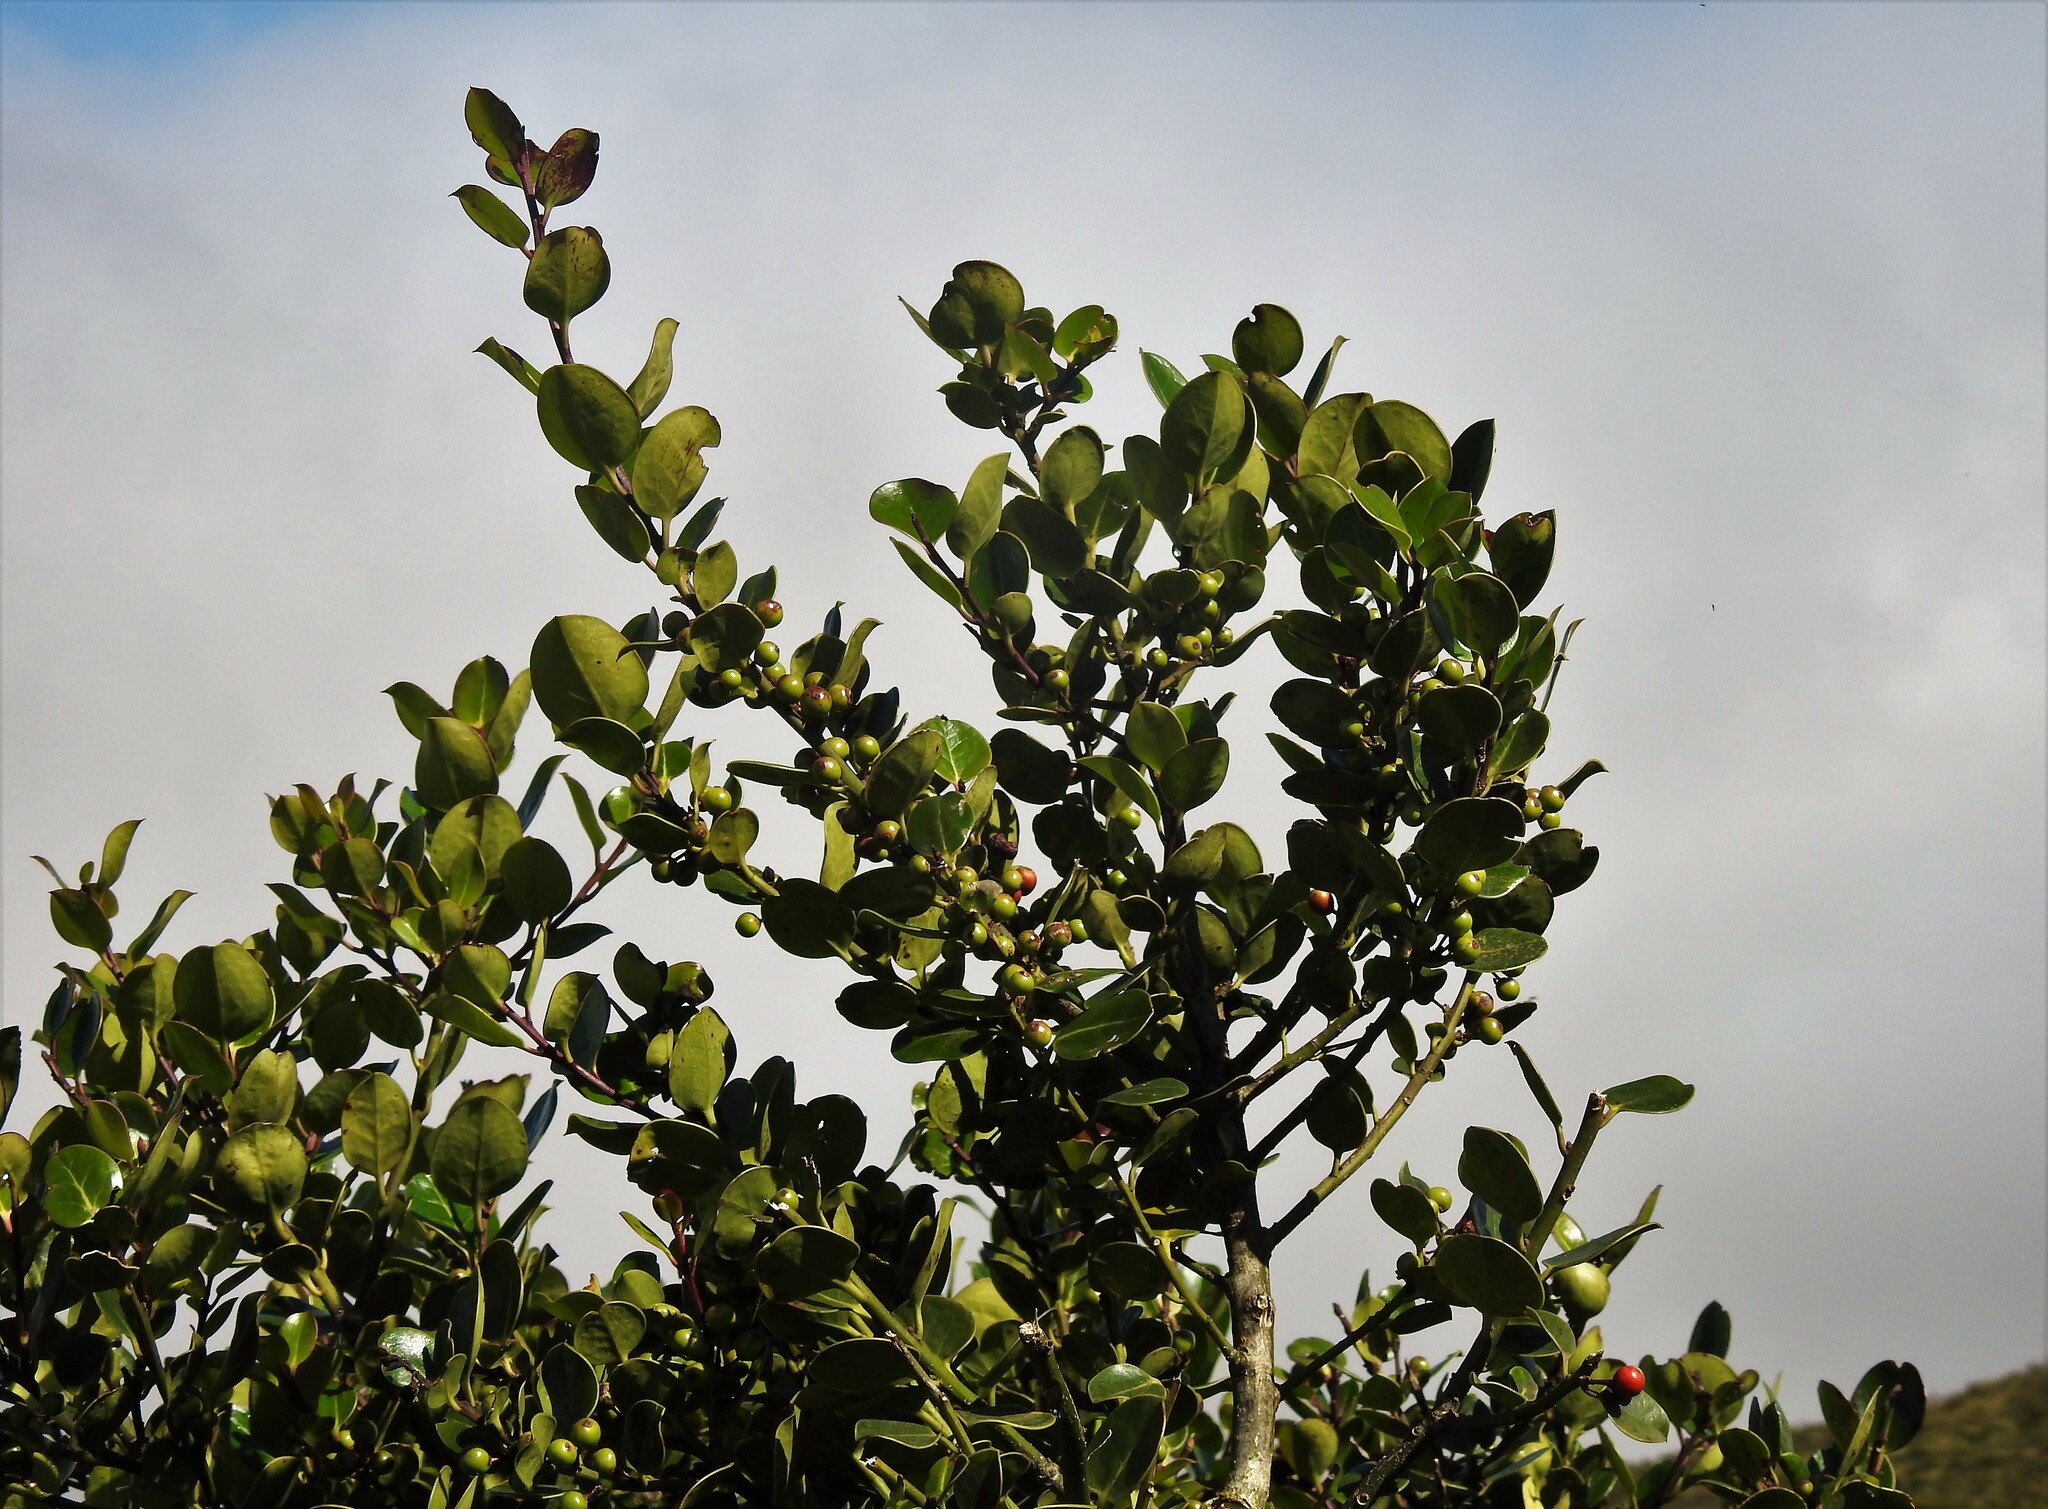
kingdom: Plantae
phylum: Tracheophyta
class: Magnoliopsida
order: Aquifoliales
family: Aquifoliaceae
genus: Ilex
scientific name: Ilex perado
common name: Madeira holly
